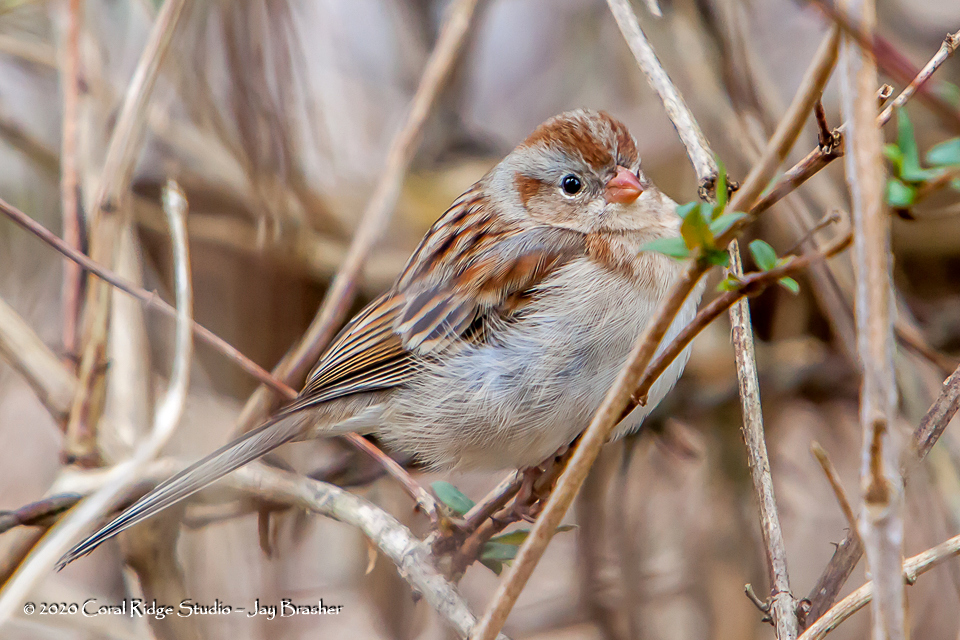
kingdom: Animalia
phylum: Chordata
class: Aves
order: Passeriformes
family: Passerellidae
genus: Spizella
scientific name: Spizella pusilla
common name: Field sparrow
